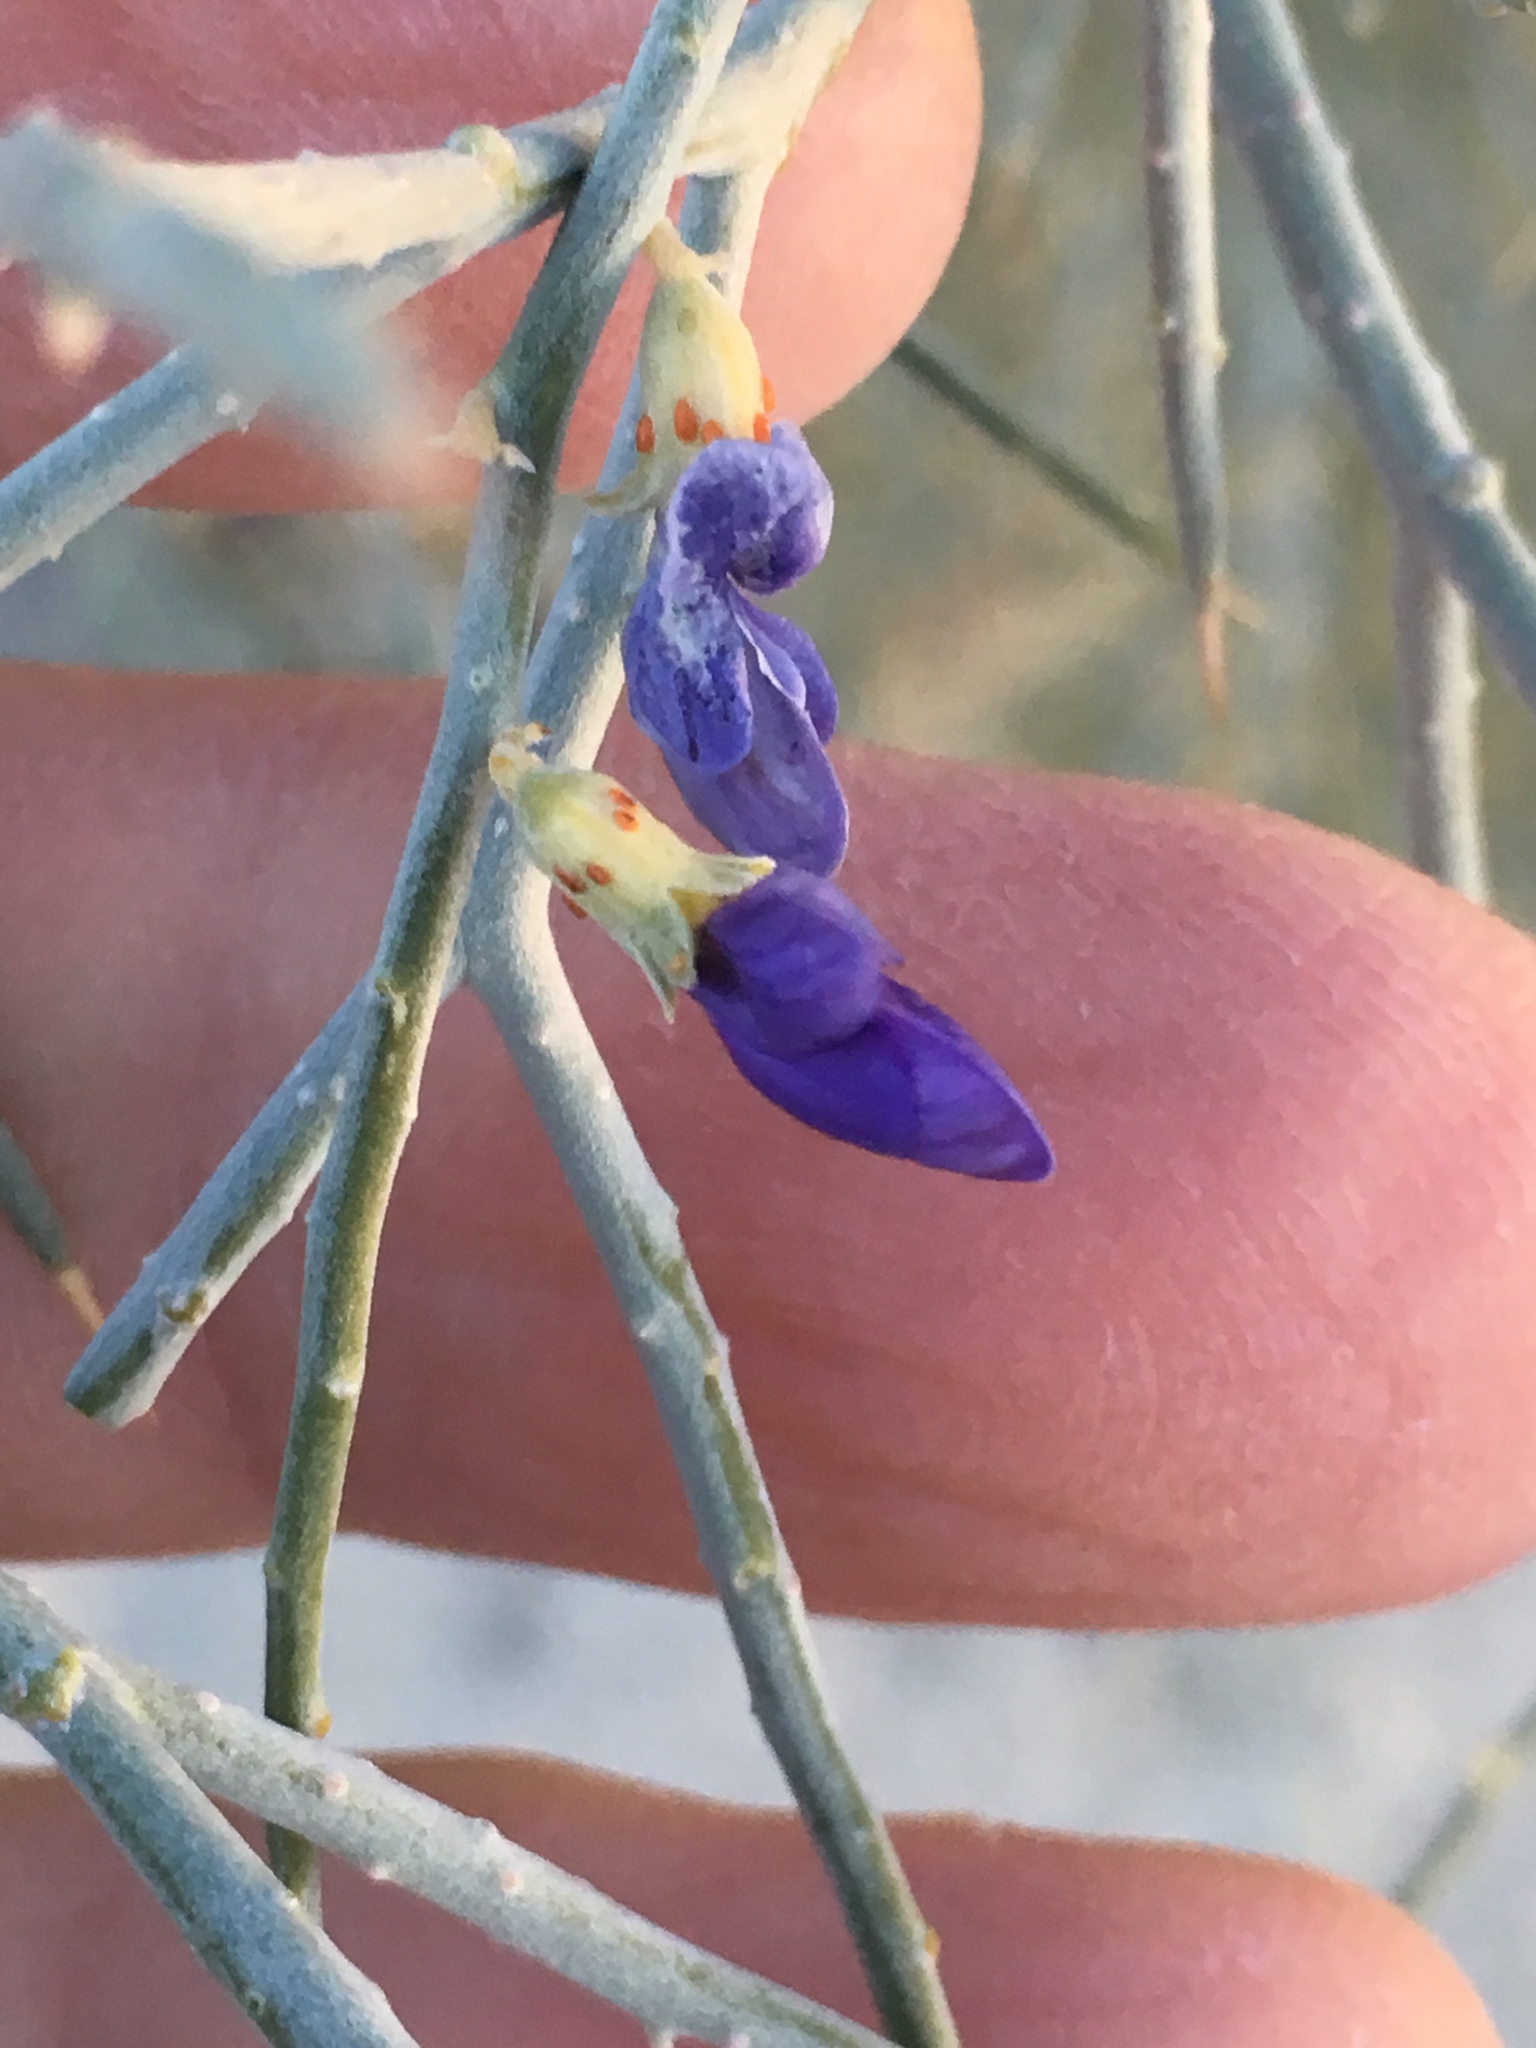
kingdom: Plantae
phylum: Tracheophyta
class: Magnoliopsida
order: Fabales
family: Fabaceae
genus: Psorothamnus
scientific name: Psorothamnus spinosus
